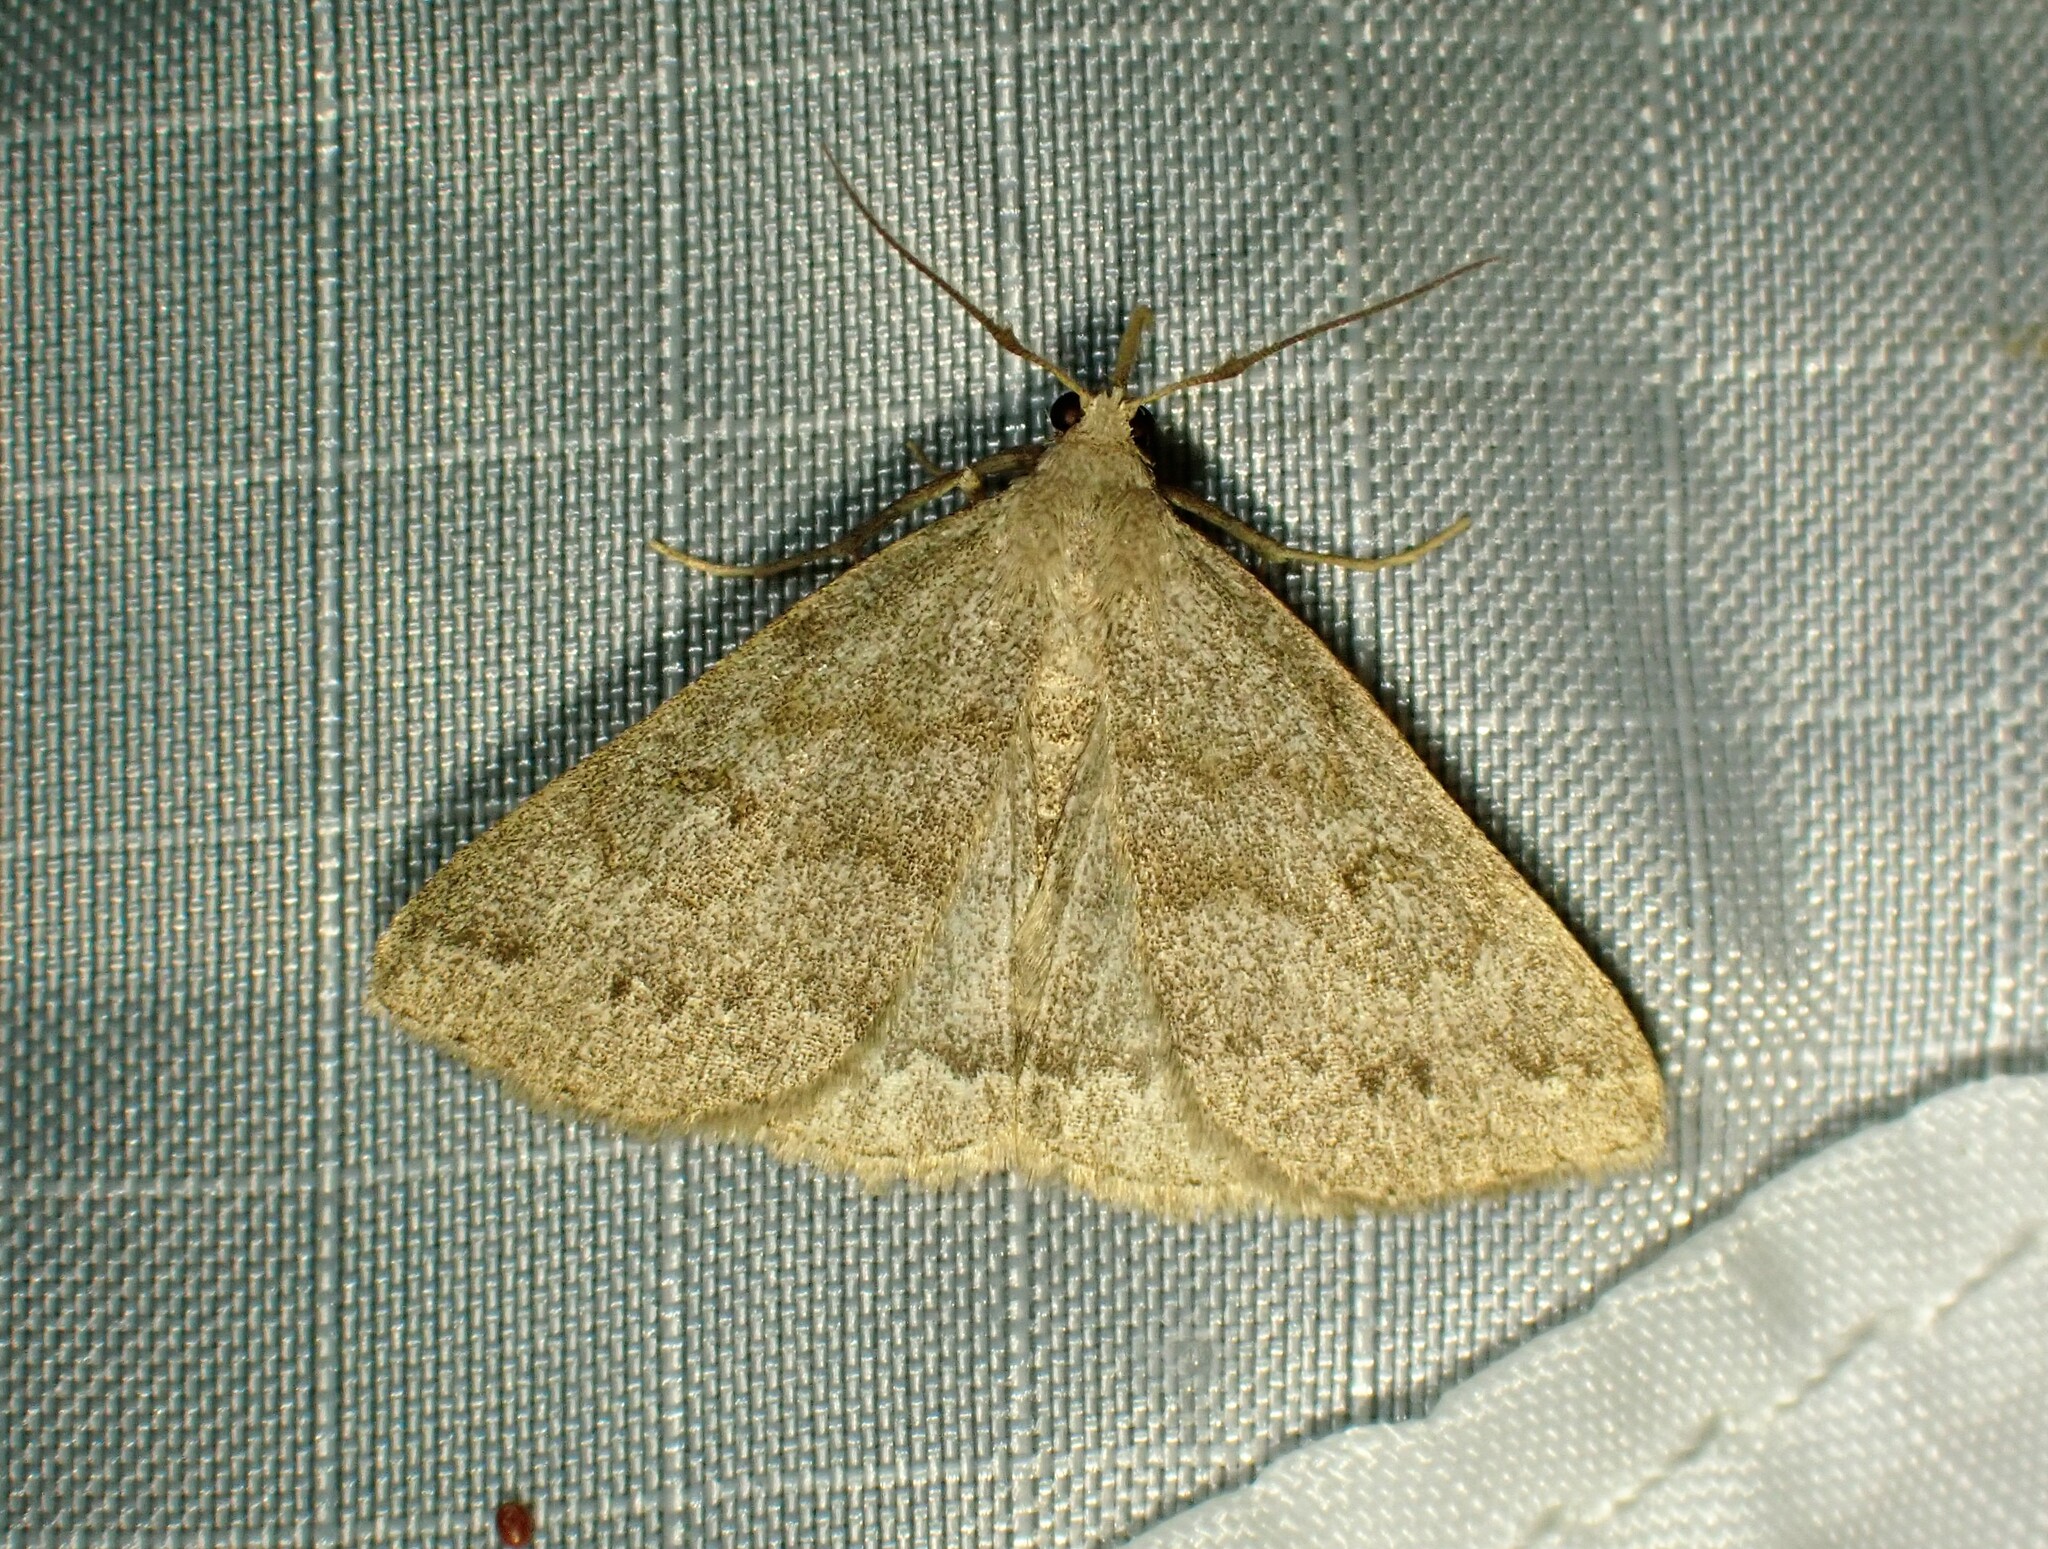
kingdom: Animalia
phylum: Arthropoda
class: Insecta
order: Lepidoptera
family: Erebidae
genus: Macrochilo
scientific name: Macrochilo morbidalis
